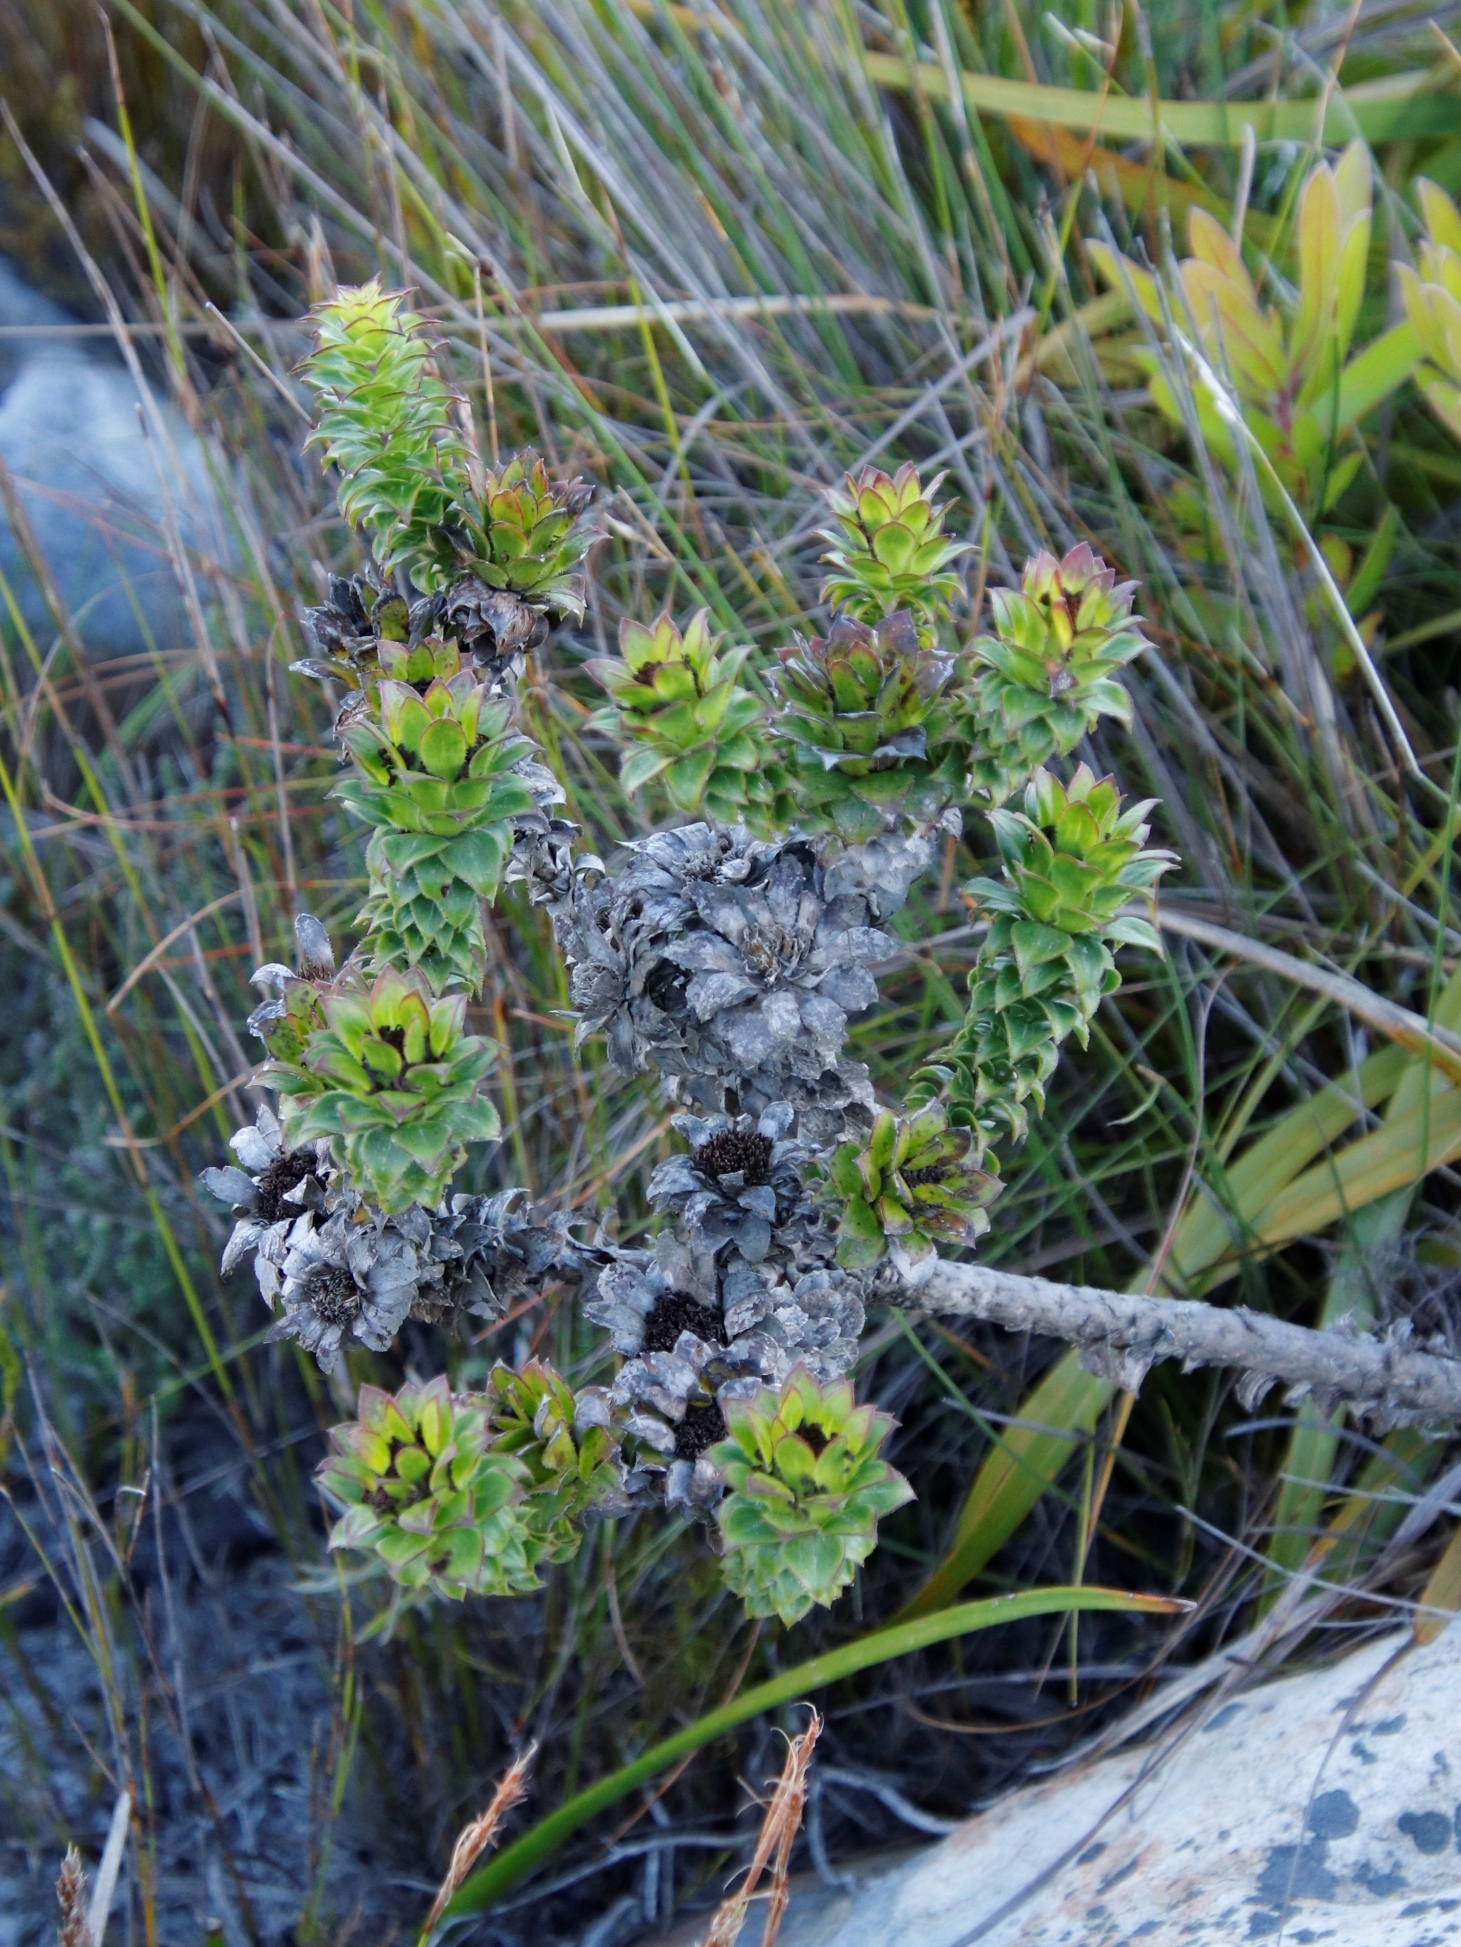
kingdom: Plantae
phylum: Tracheophyta
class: Magnoliopsida
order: Asterales
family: Asteraceae
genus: Oedera
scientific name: Oedera imbricata
